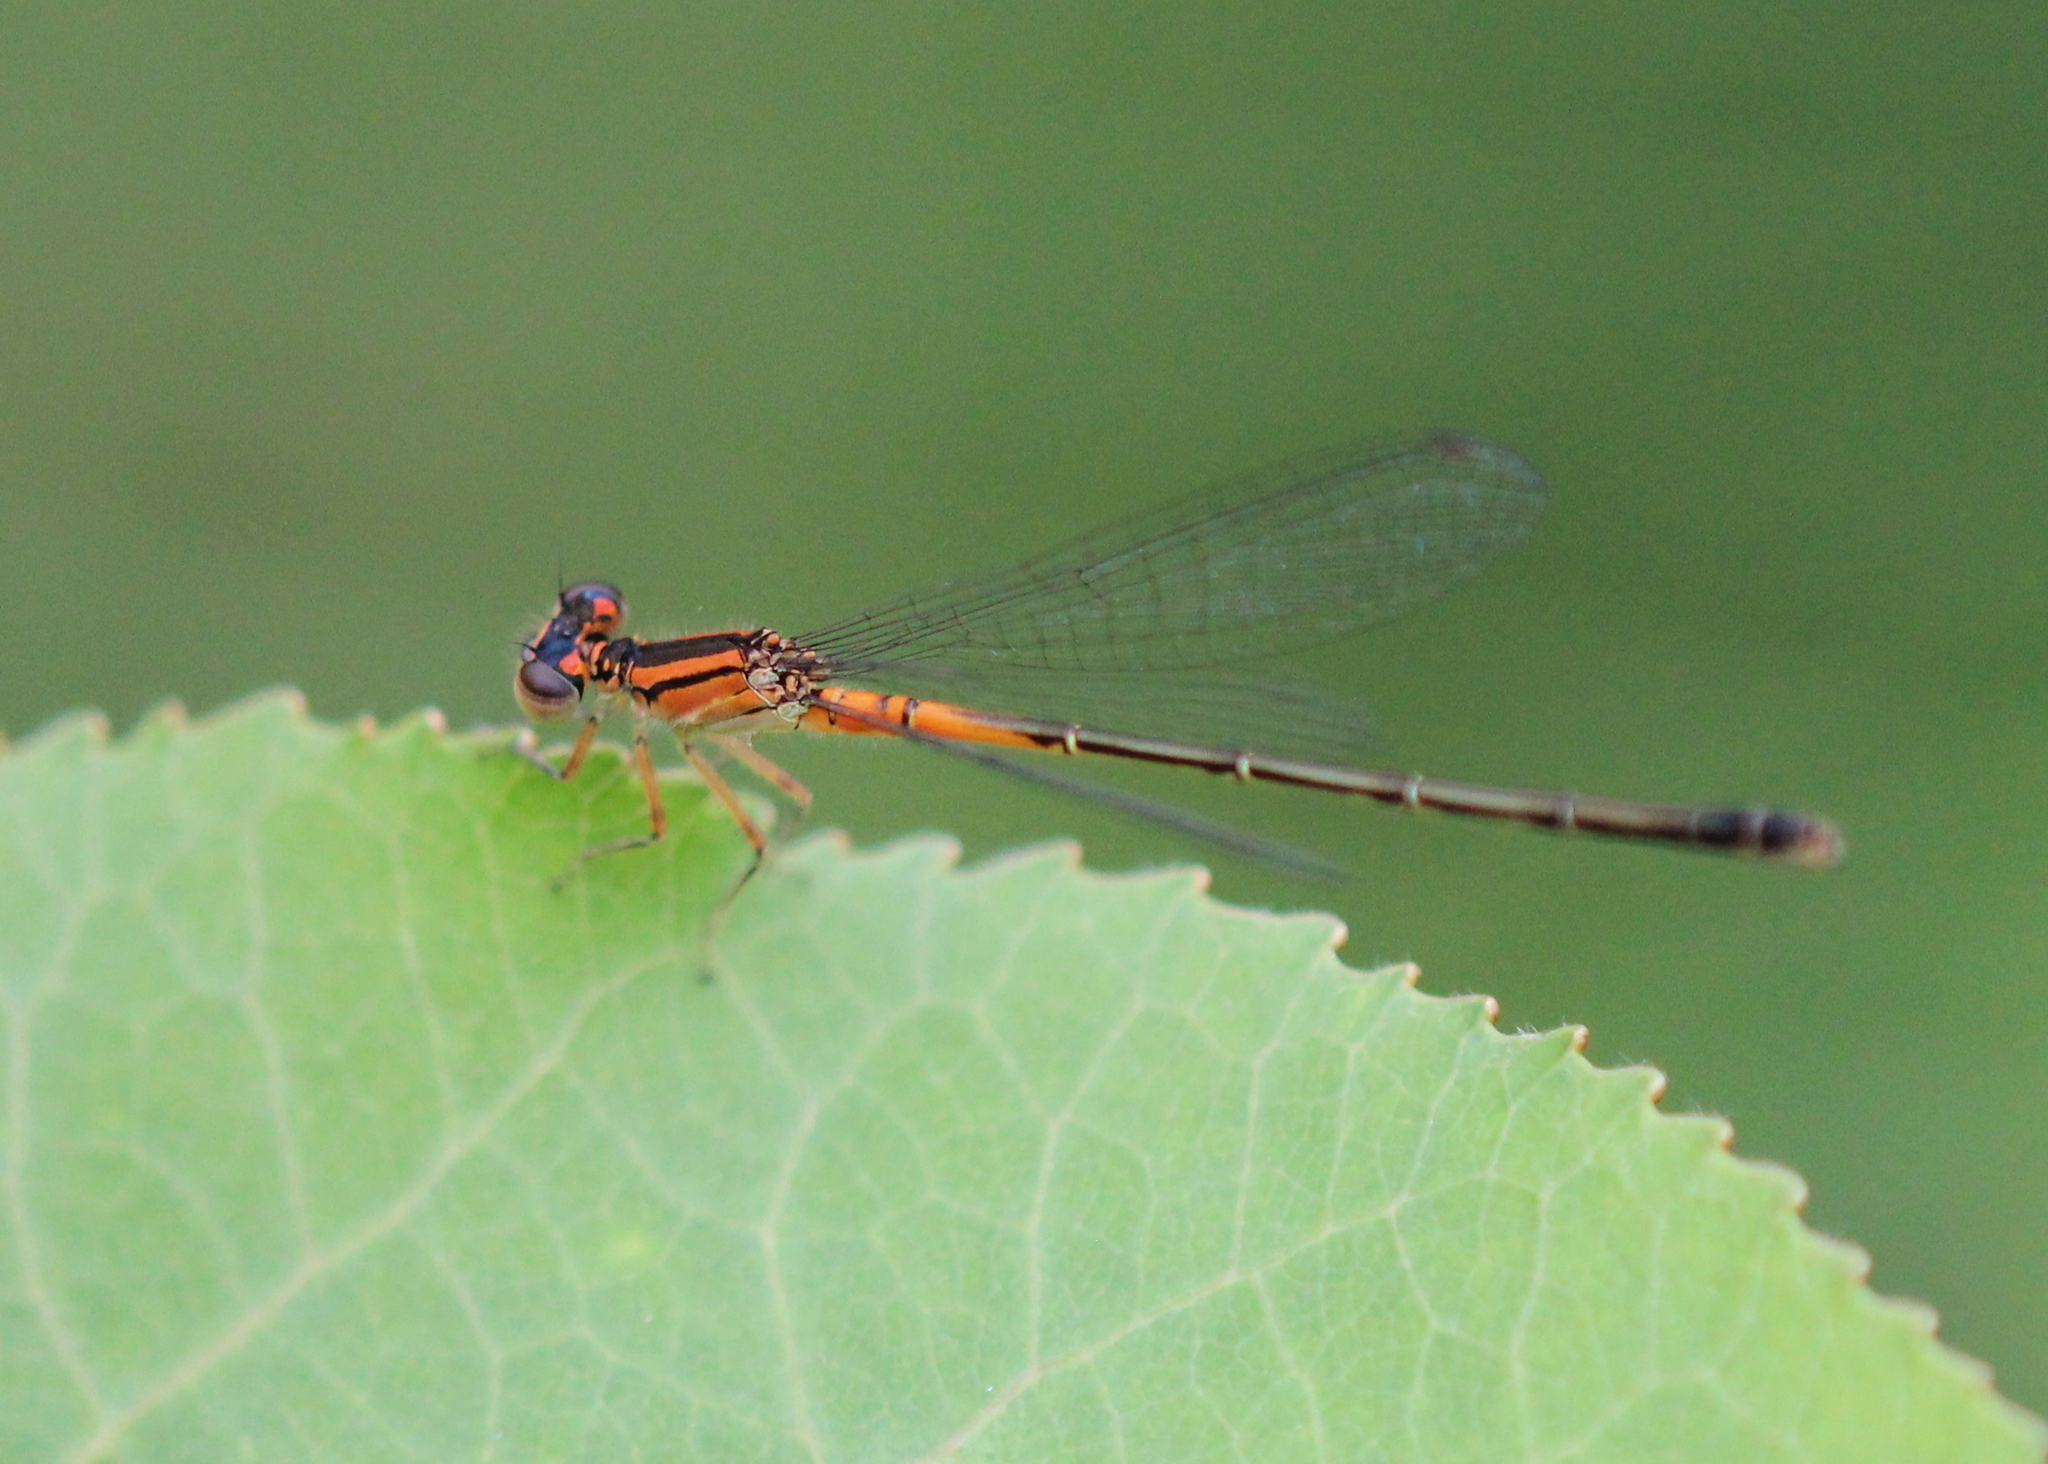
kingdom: Animalia
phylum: Arthropoda
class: Insecta
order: Odonata
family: Coenagrionidae
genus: Ischnura
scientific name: Ischnura verticalis
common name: Eastern forktail
